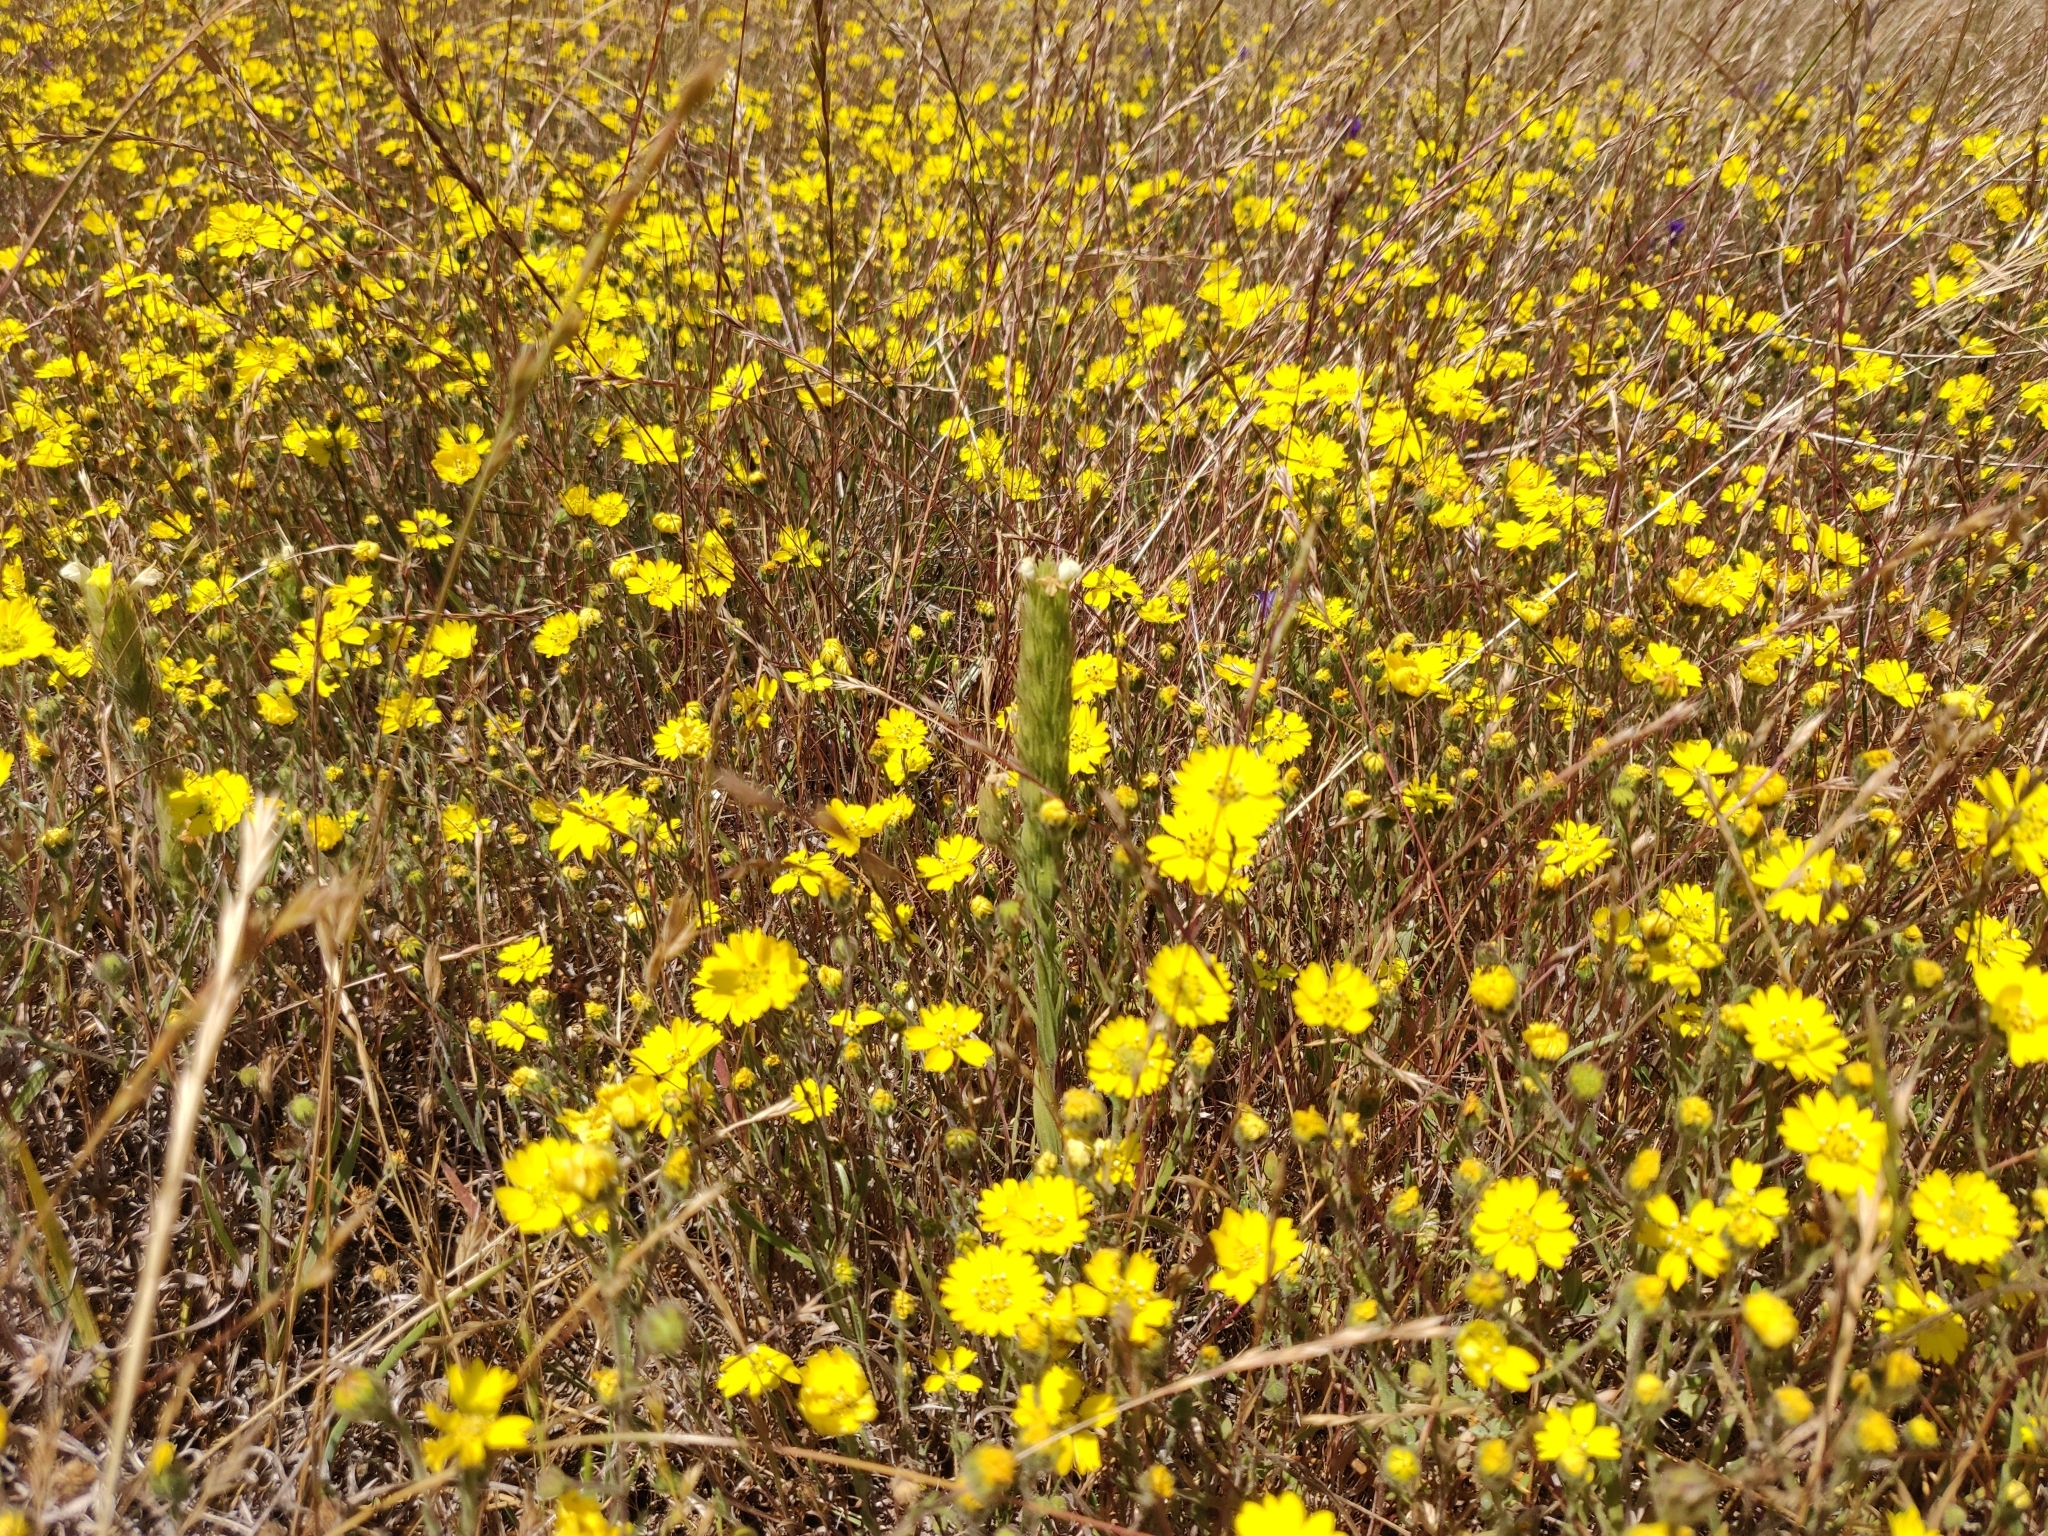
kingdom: Plantae
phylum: Tracheophyta
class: Magnoliopsida
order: Lamiales
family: Orobanchaceae
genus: Castilleja
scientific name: Castilleja rubicundula
